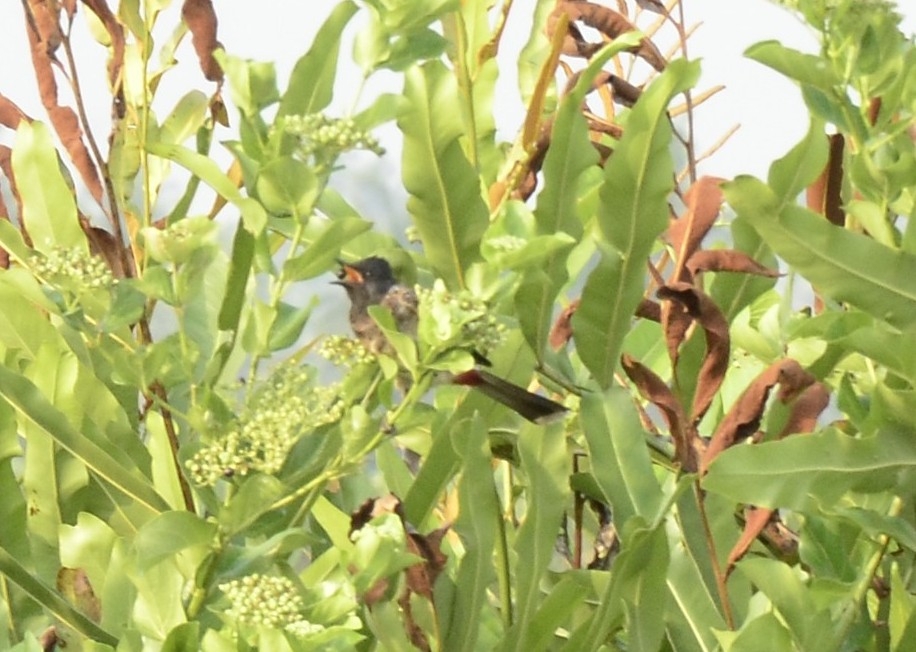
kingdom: Animalia
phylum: Chordata
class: Aves
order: Passeriformes
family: Pycnonotidae
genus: Pycnonotus
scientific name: Pycnonotus cafer
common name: Red-vented bulbul
